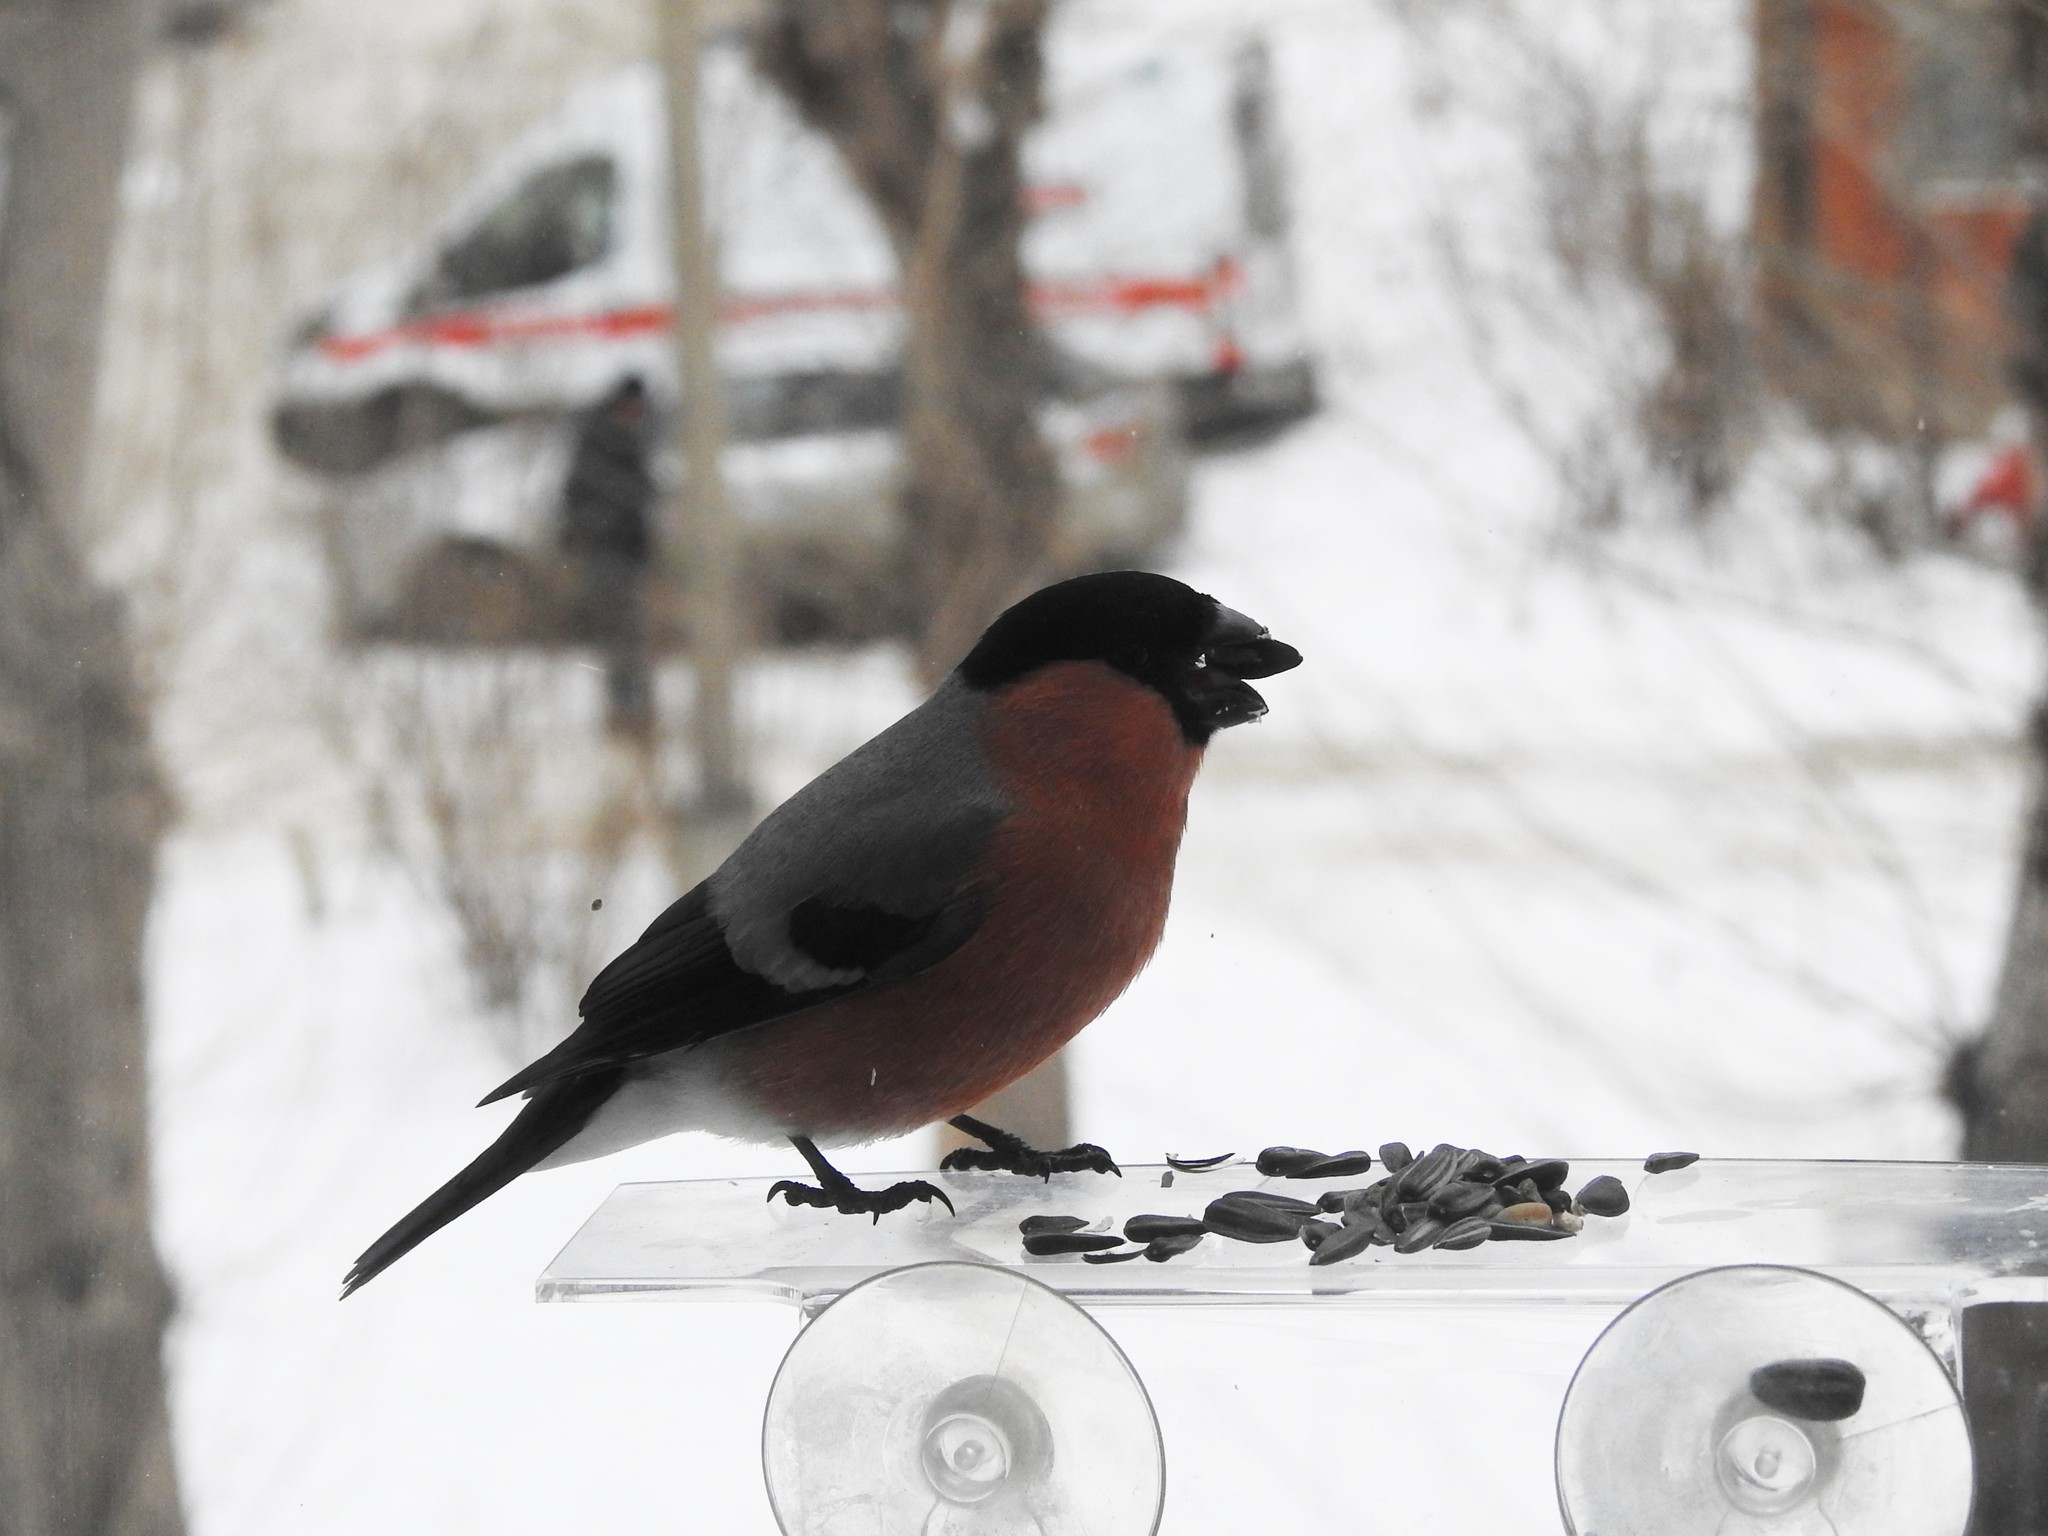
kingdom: Animalia
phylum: Chordata
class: Aves
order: Passeriformes
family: Fringillidae
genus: Pyrrhula
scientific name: Pyrrhula pyrrhula
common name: Eurasian bullfinch
